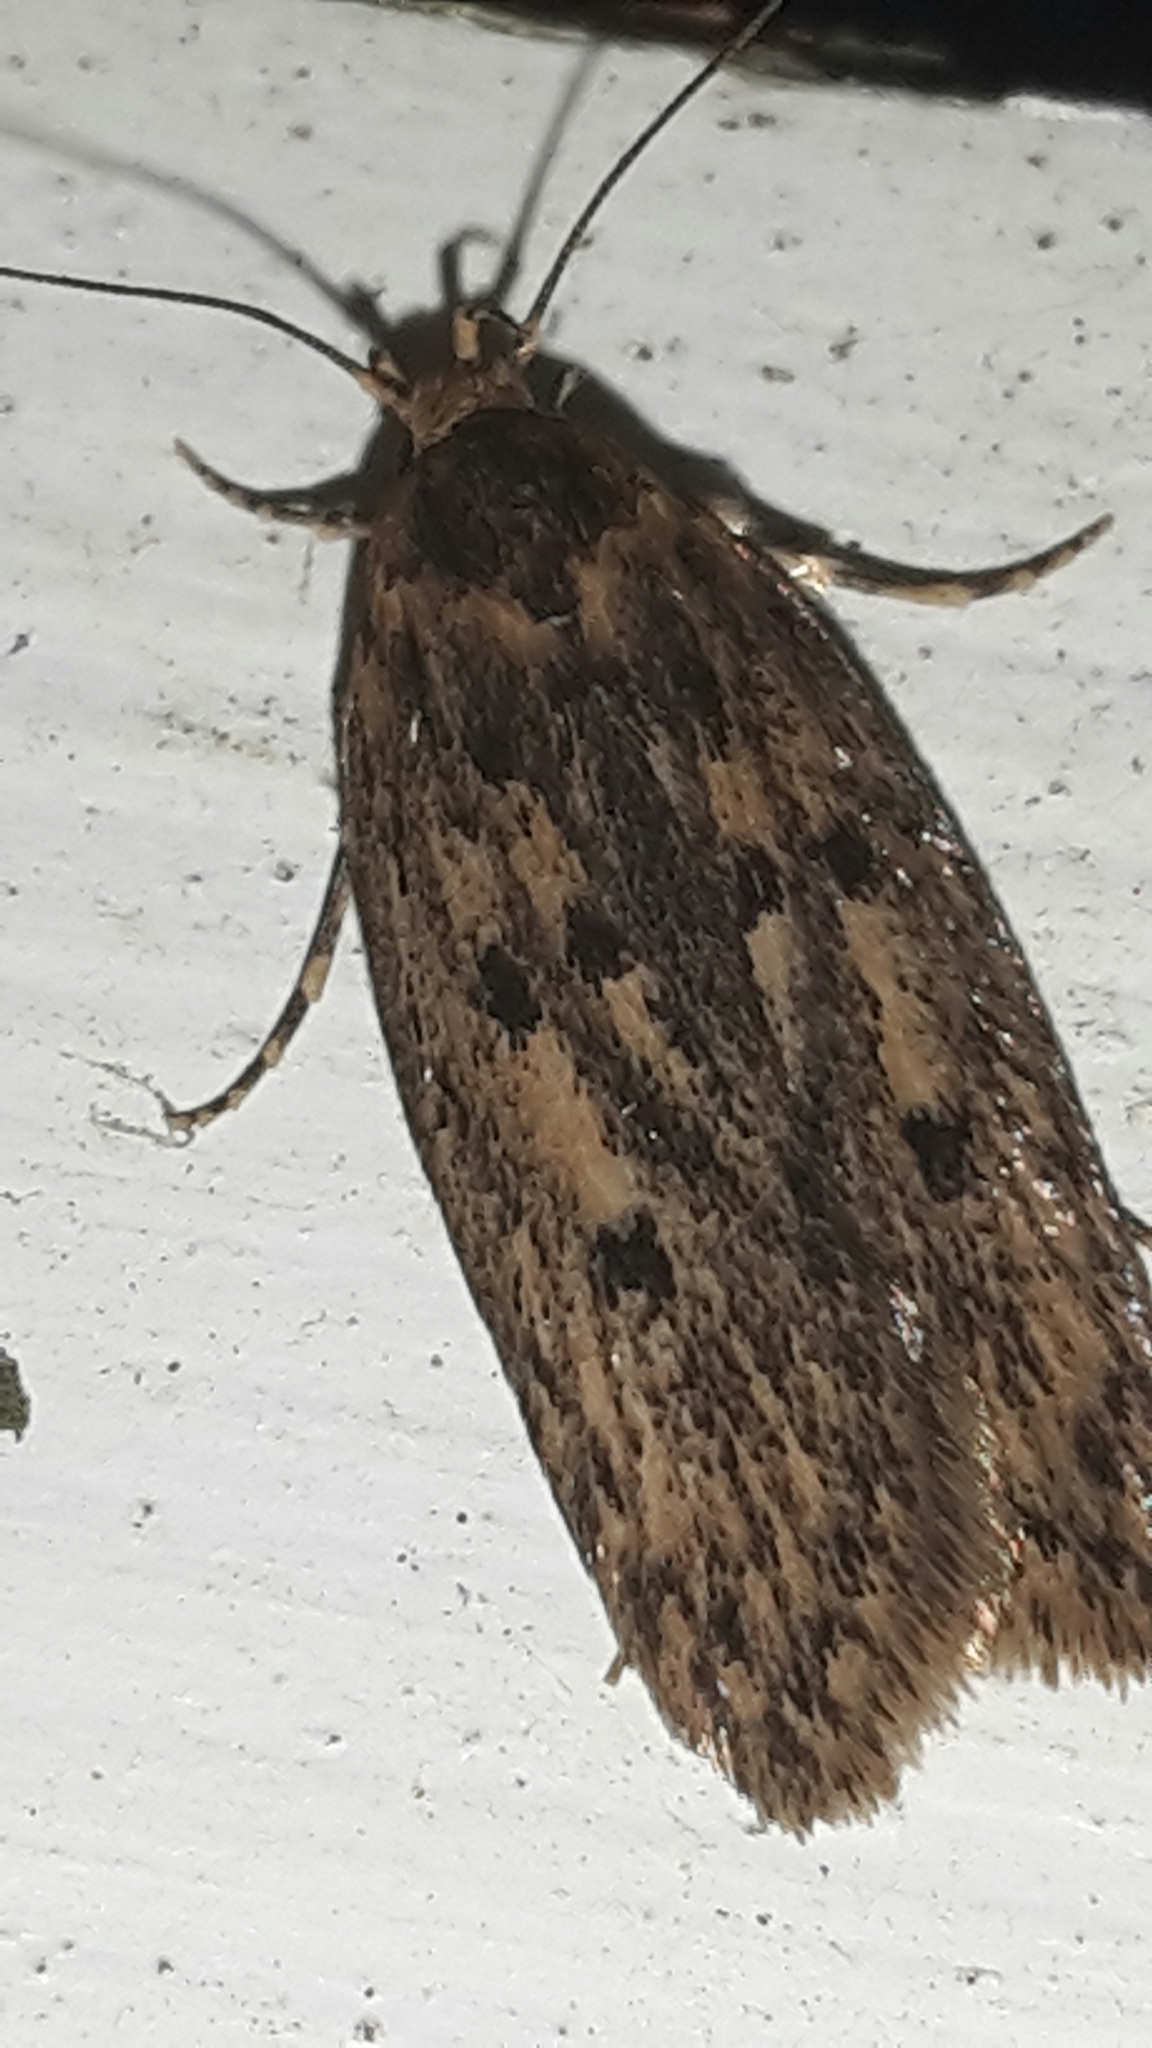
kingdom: Animalia
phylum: Arthropoda
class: Insecta
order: Lepidoptera
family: Oecophoridae
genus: Hofmannophila
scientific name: Hofmannophila pseudospretella
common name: Brown house moth
